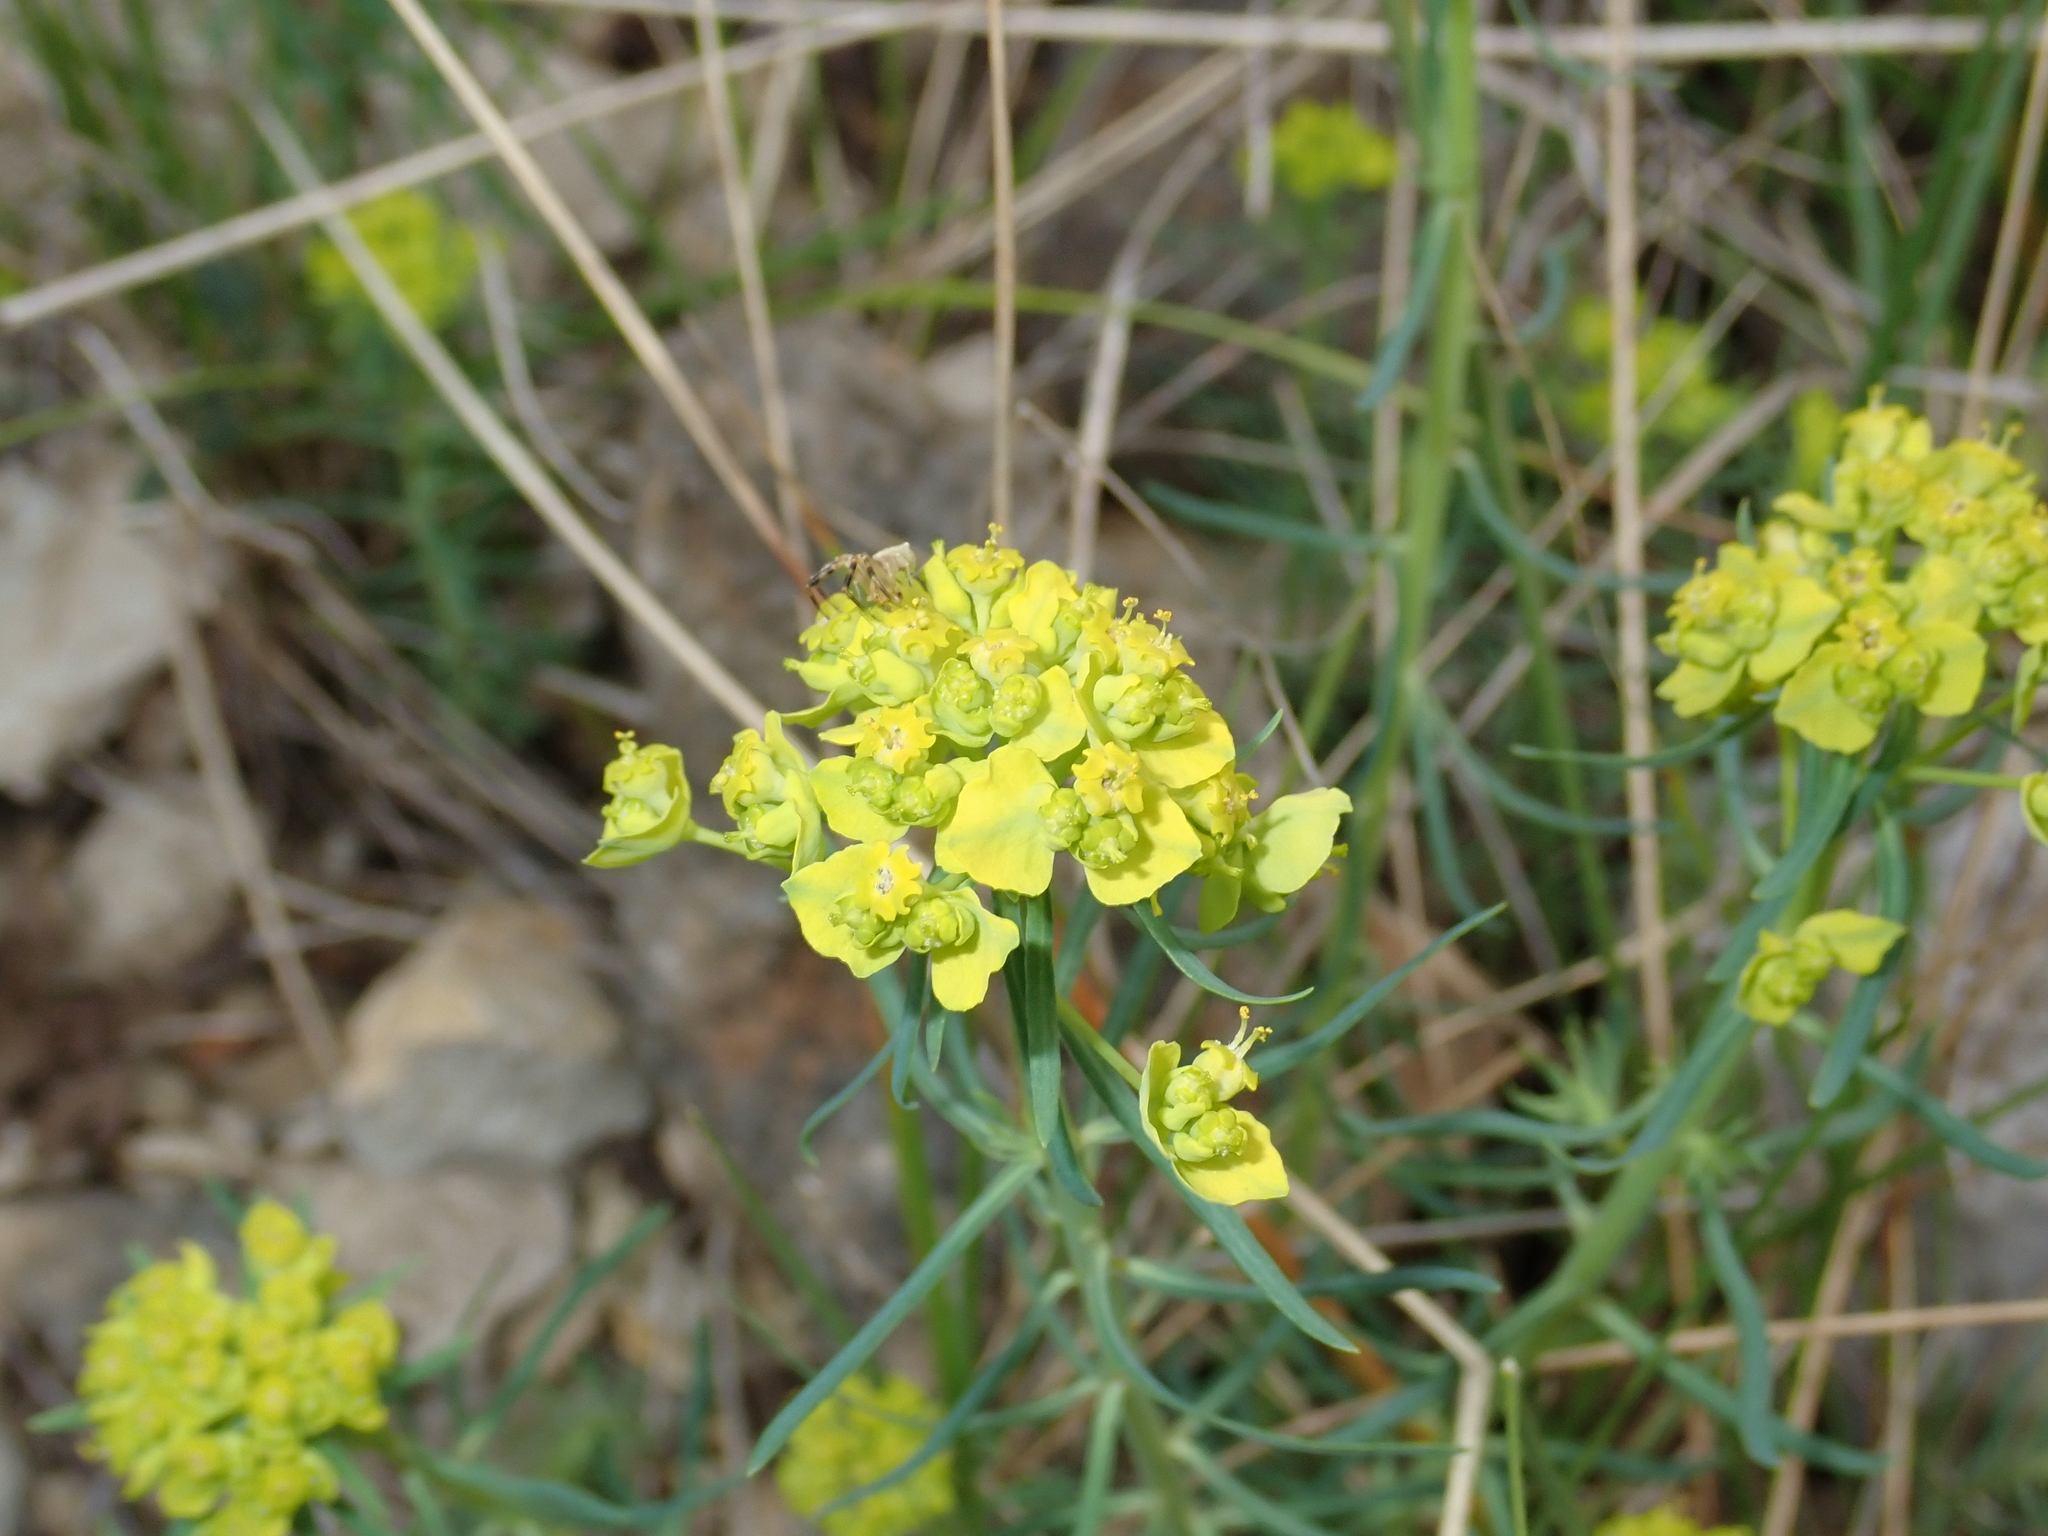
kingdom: Plantae
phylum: Tracheophyta
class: Magnoliopsida
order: Malpighiales
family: Euphorbiaceae
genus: Euphorbia
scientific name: Euphorbia cyparissias
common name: Cypress spurge
